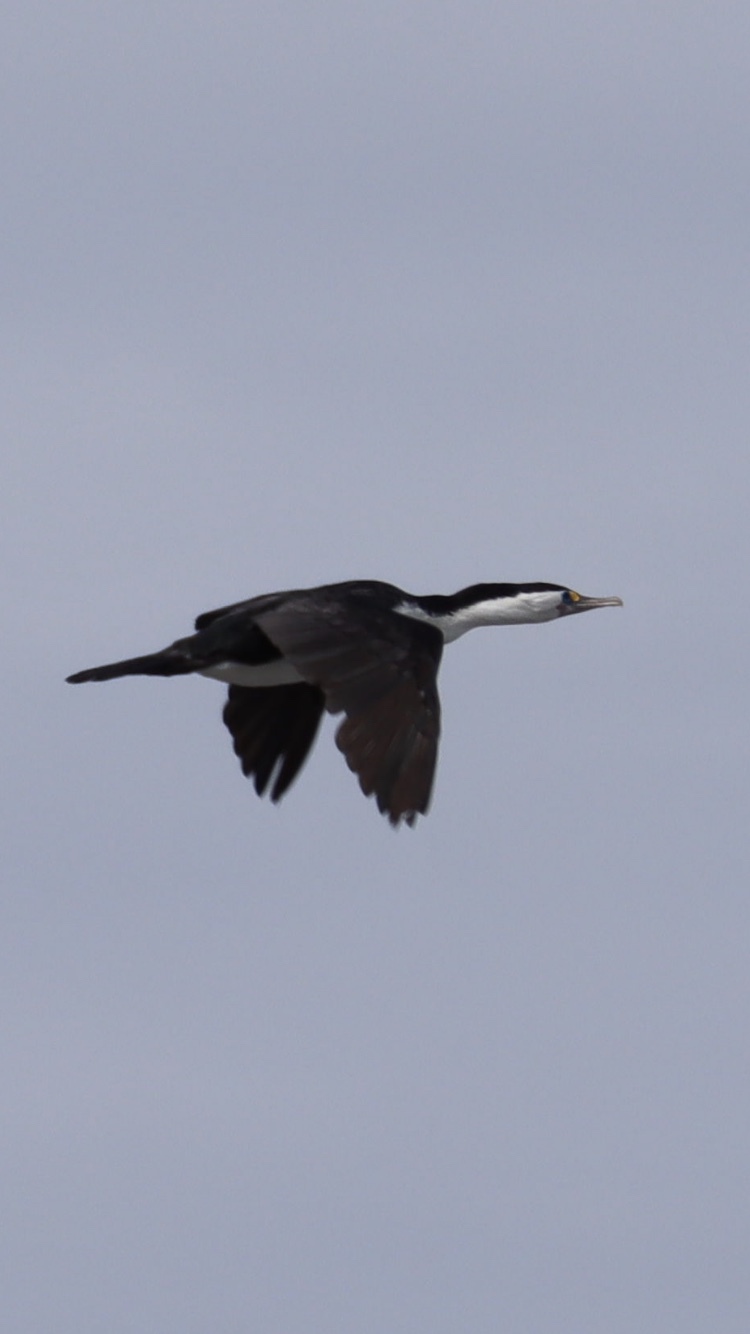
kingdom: Animalia
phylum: Chordata
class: Aves
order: Suliformes
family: Phalacrocoracidae
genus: Phalacrocorax
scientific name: Phalacrocorax varius
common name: Pied cormorant
